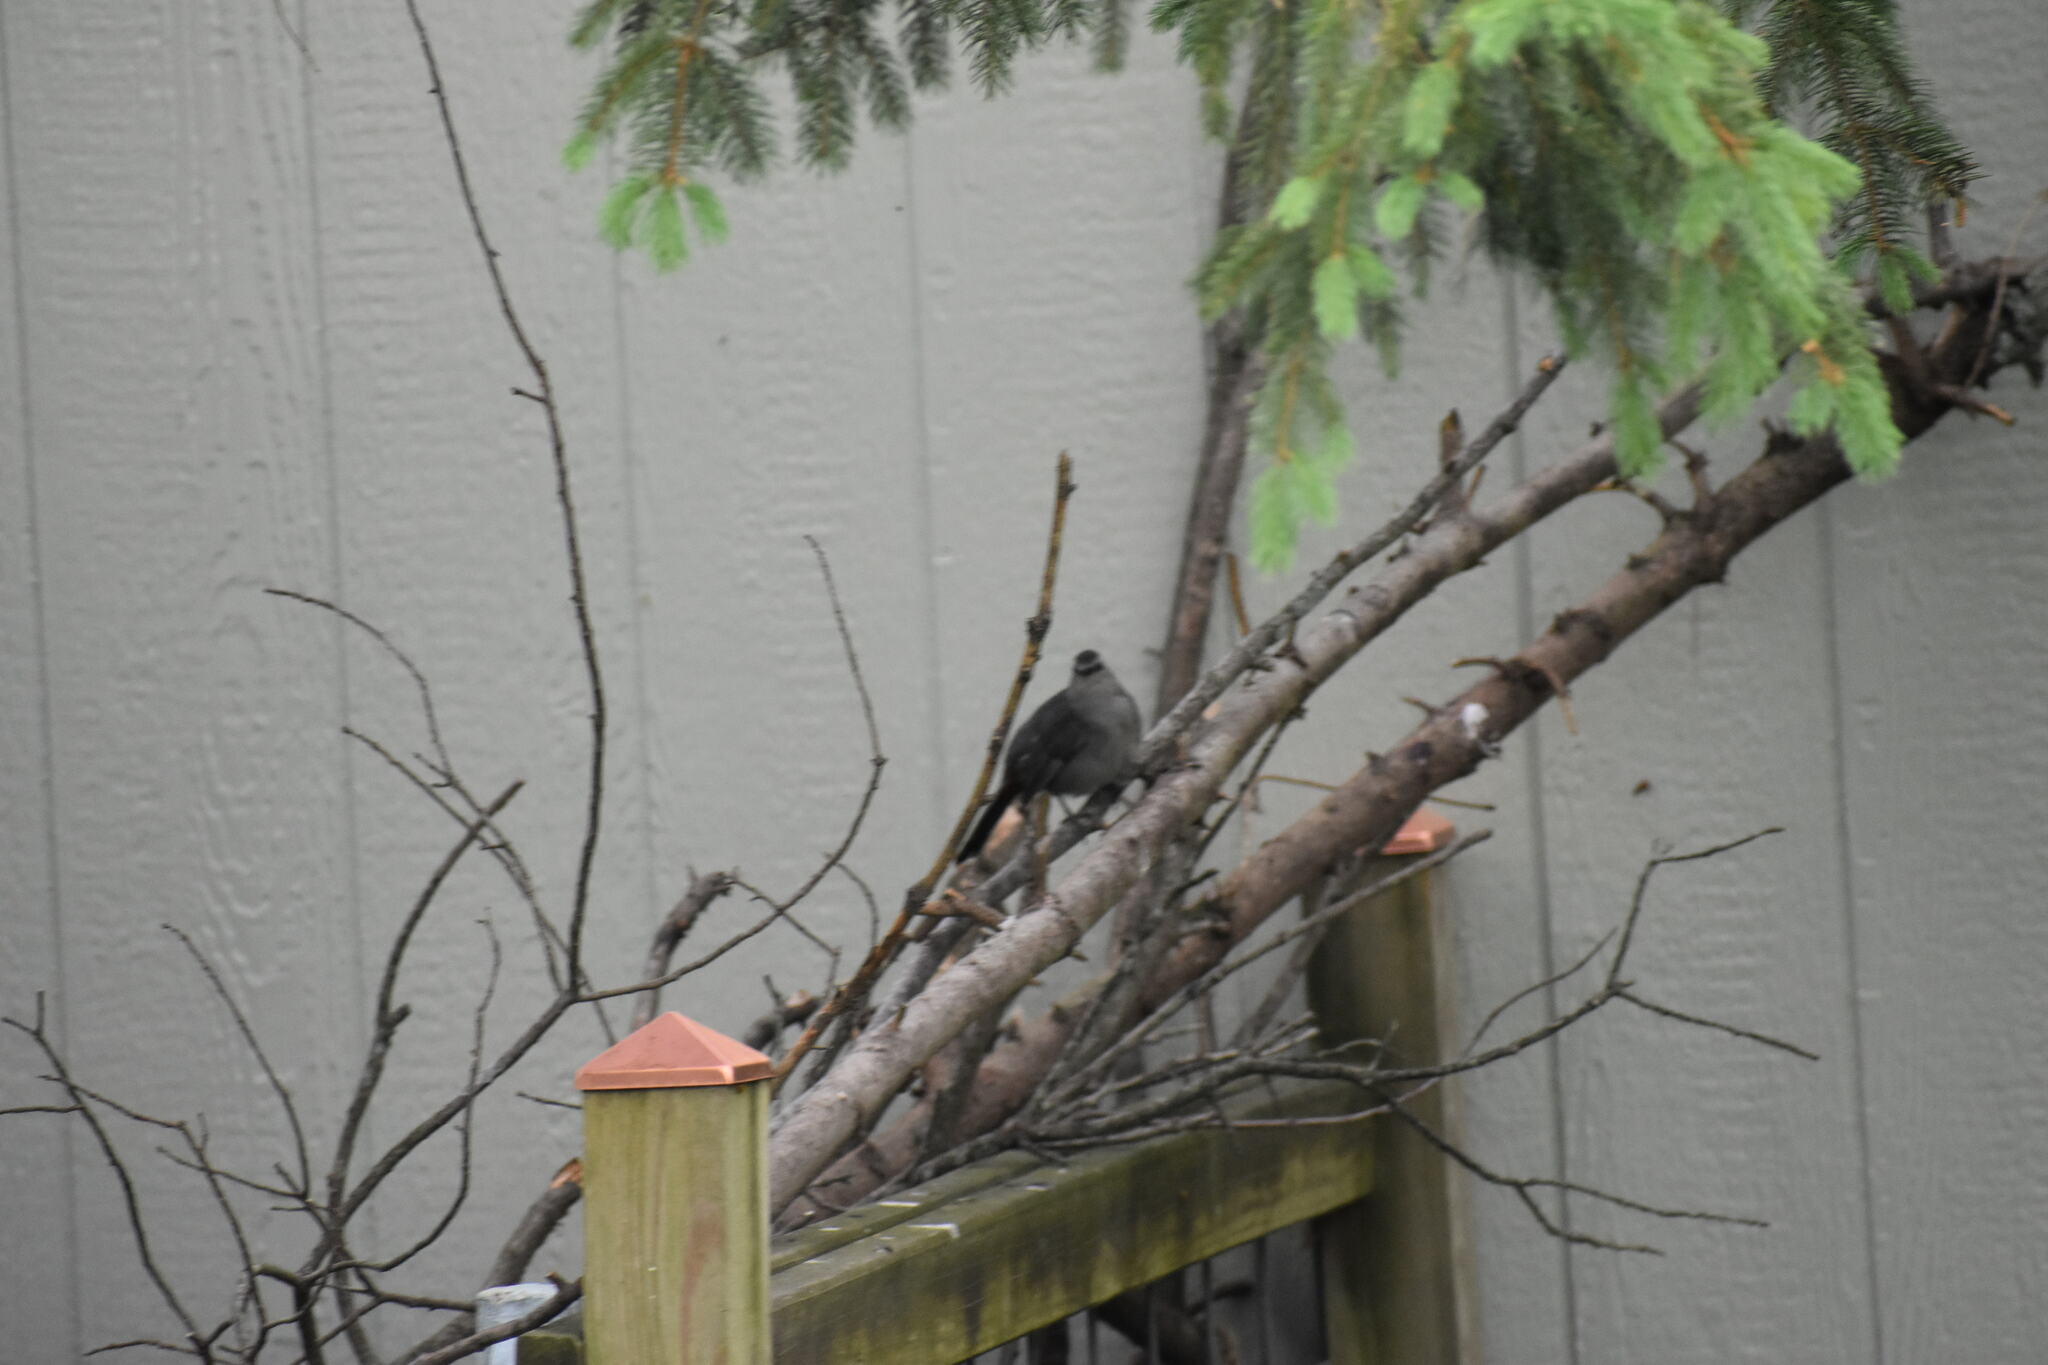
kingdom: Animalia
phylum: Chordata
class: Aves
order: Passeriformes
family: Mimidae
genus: Dumetella
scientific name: Dumetella carolinensis
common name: Gray catbird
